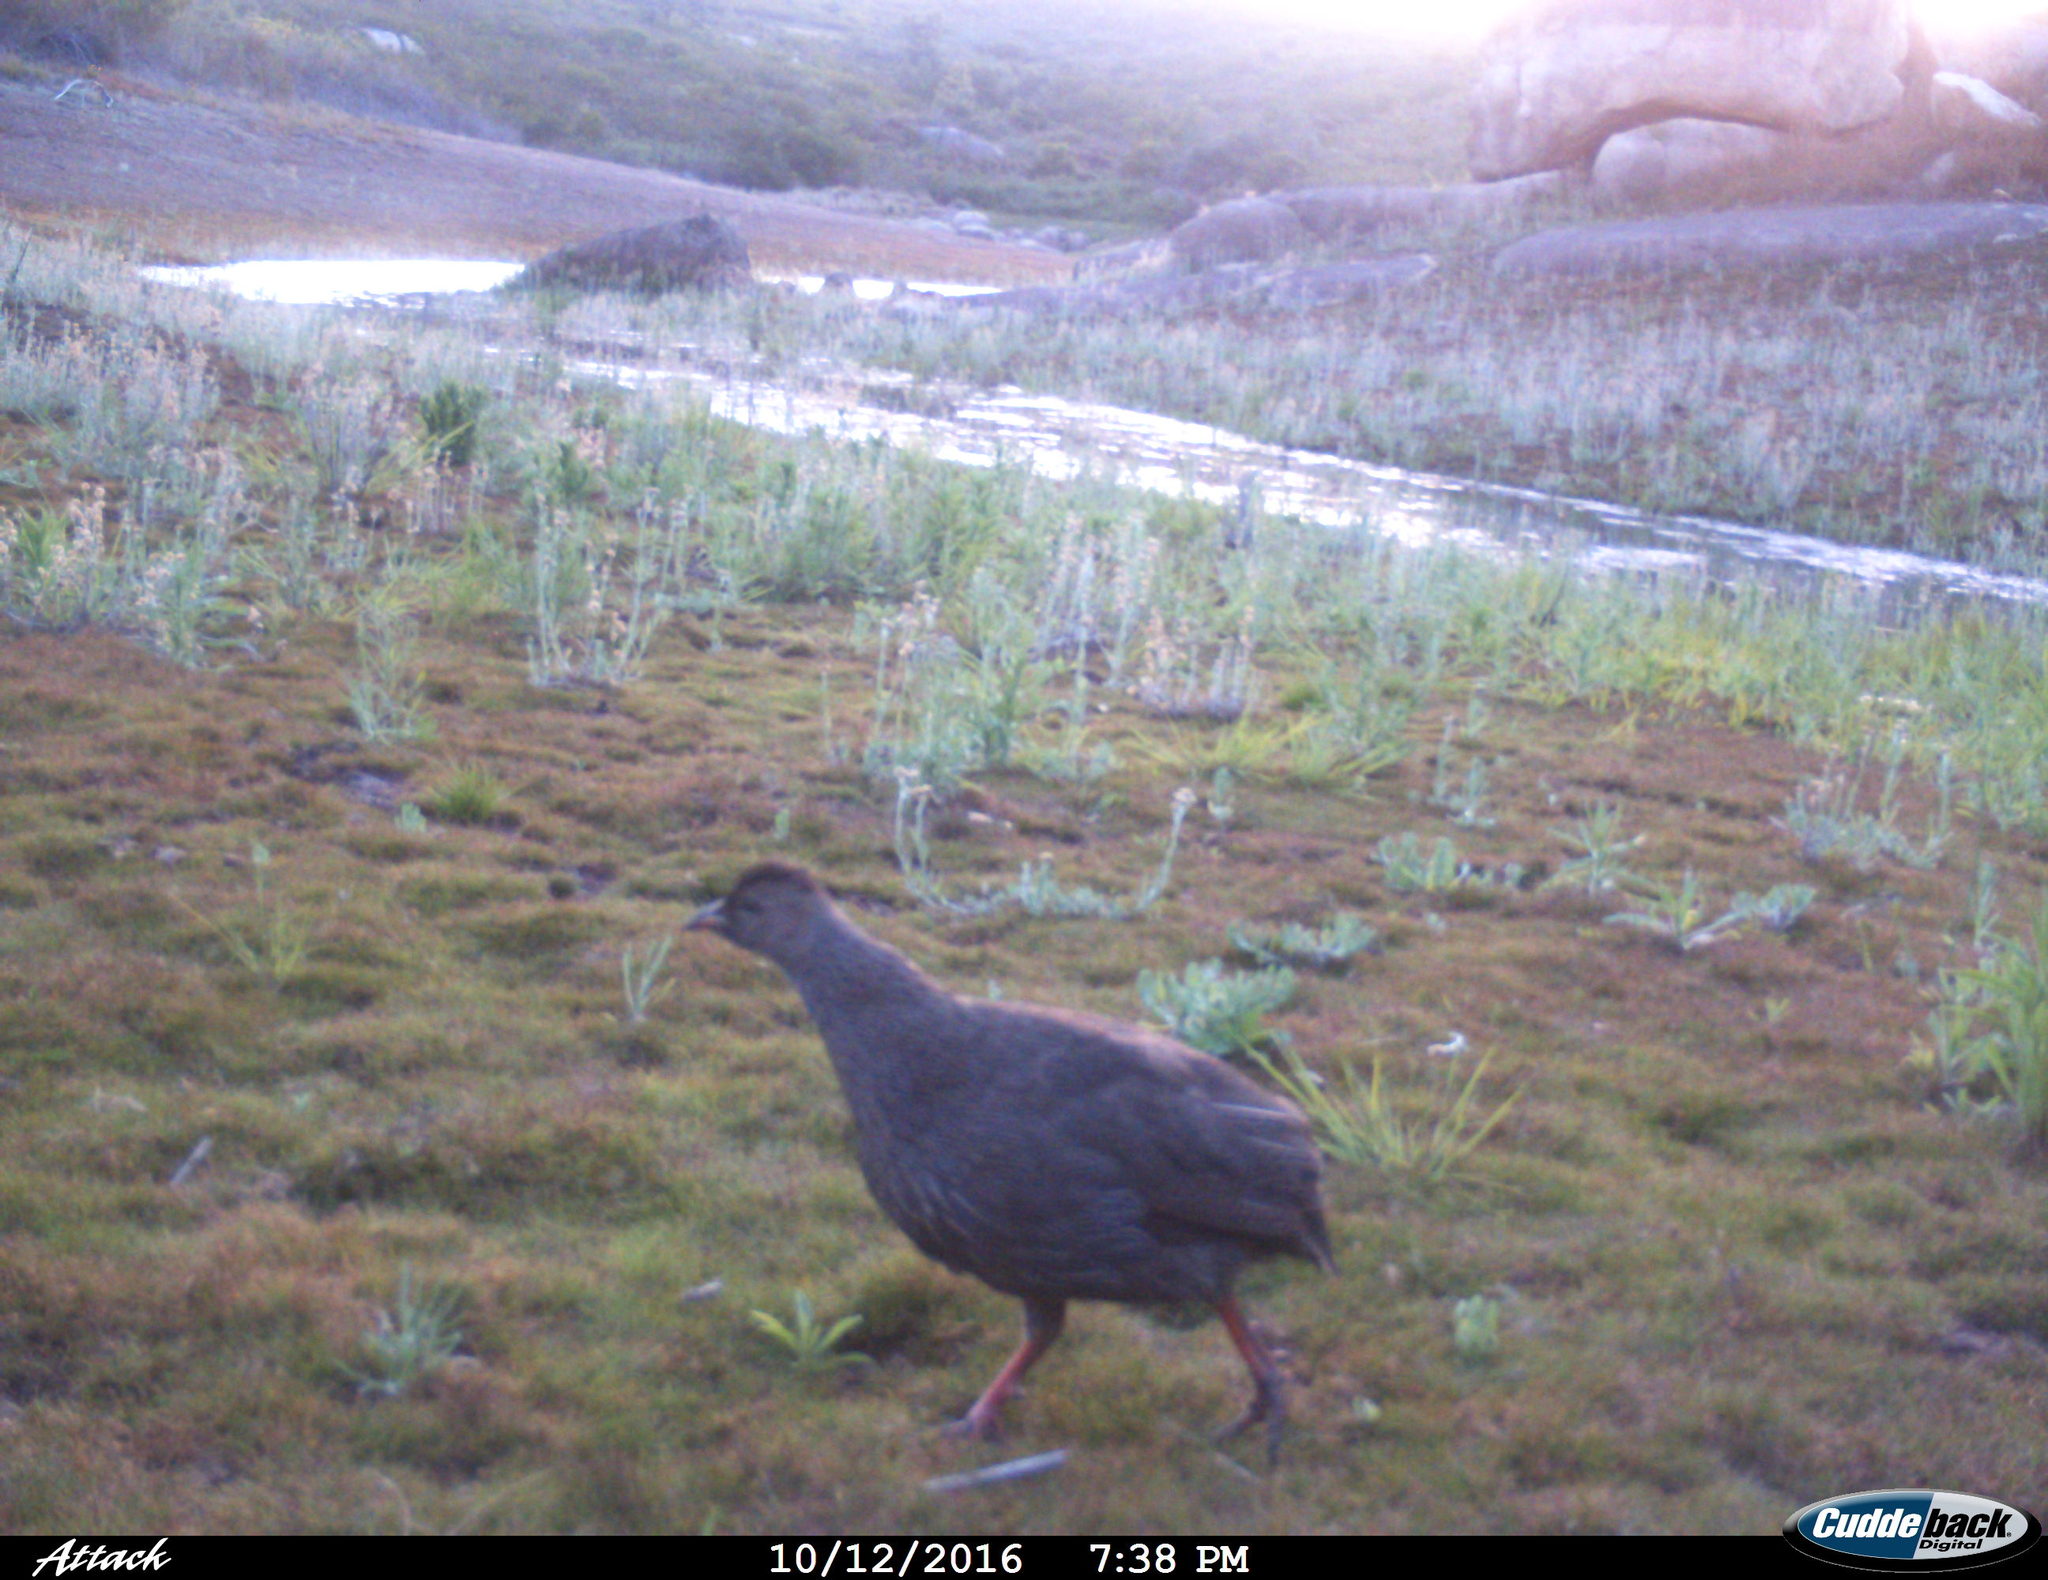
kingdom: Animalia
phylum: Chordata
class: Aves
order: Galliformes
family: Phasianidae
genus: Pternistis
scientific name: Pternistis capensis
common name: Cape spurfowl
